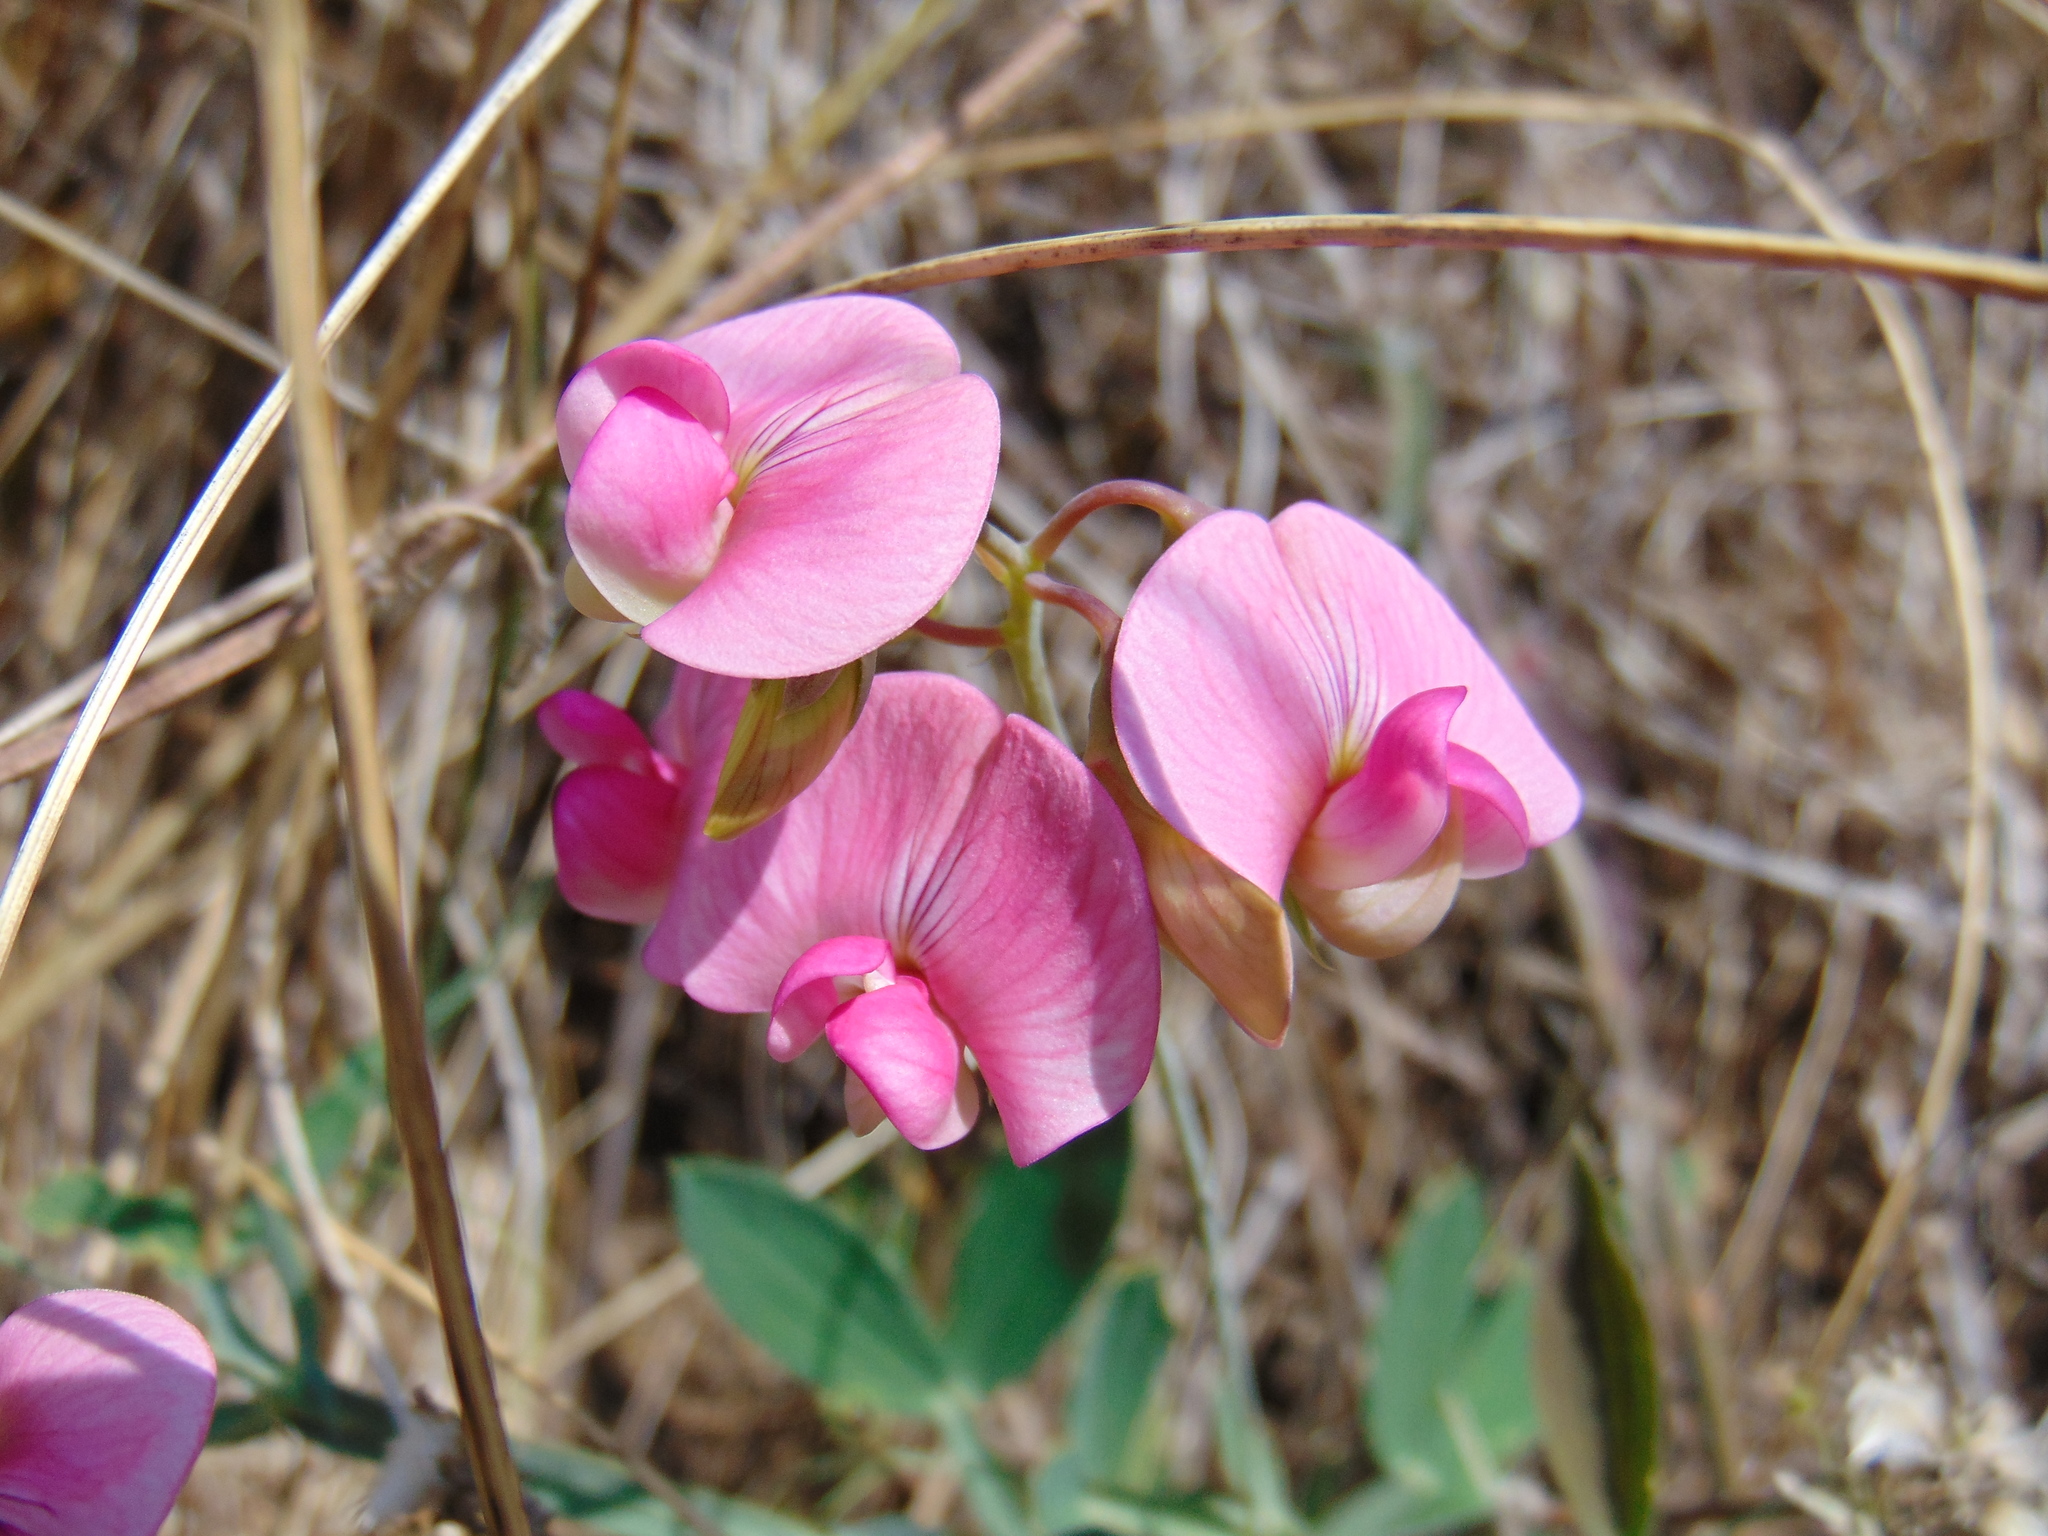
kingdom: Plantae
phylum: Tracheophyta
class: Magnoliopsida
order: Fabales
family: Fabaceae
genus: Lathyrus
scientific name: Lathyrus latifolius
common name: Perennial pea
